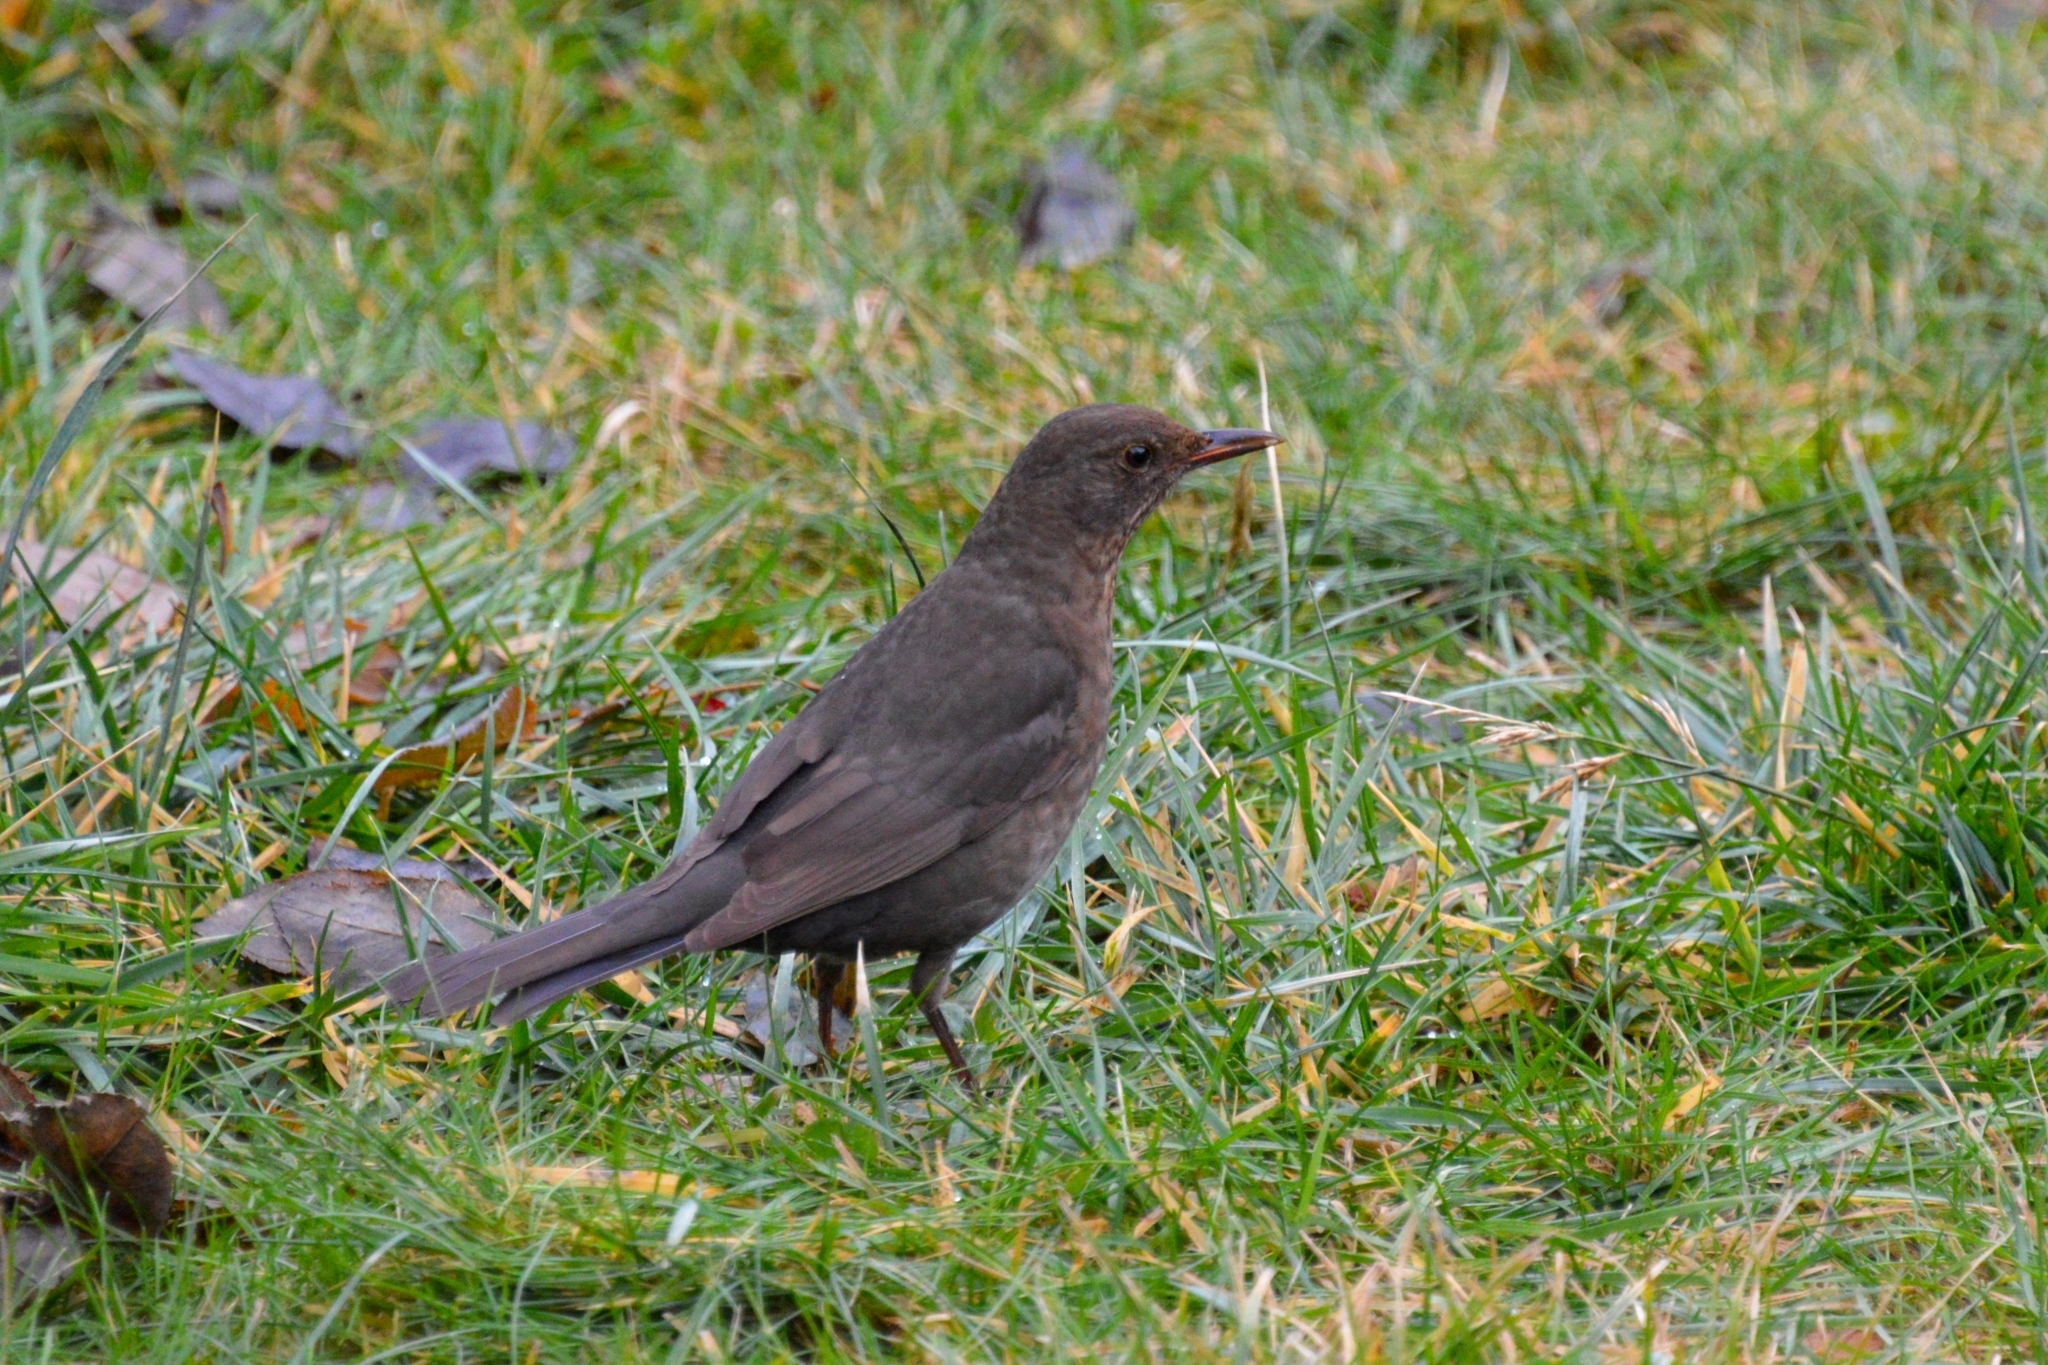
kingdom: Animalia
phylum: Chordata
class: Aves
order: Passeriformes
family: Turdidae
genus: Turdus
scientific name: Turdus merula
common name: Common blackbird
